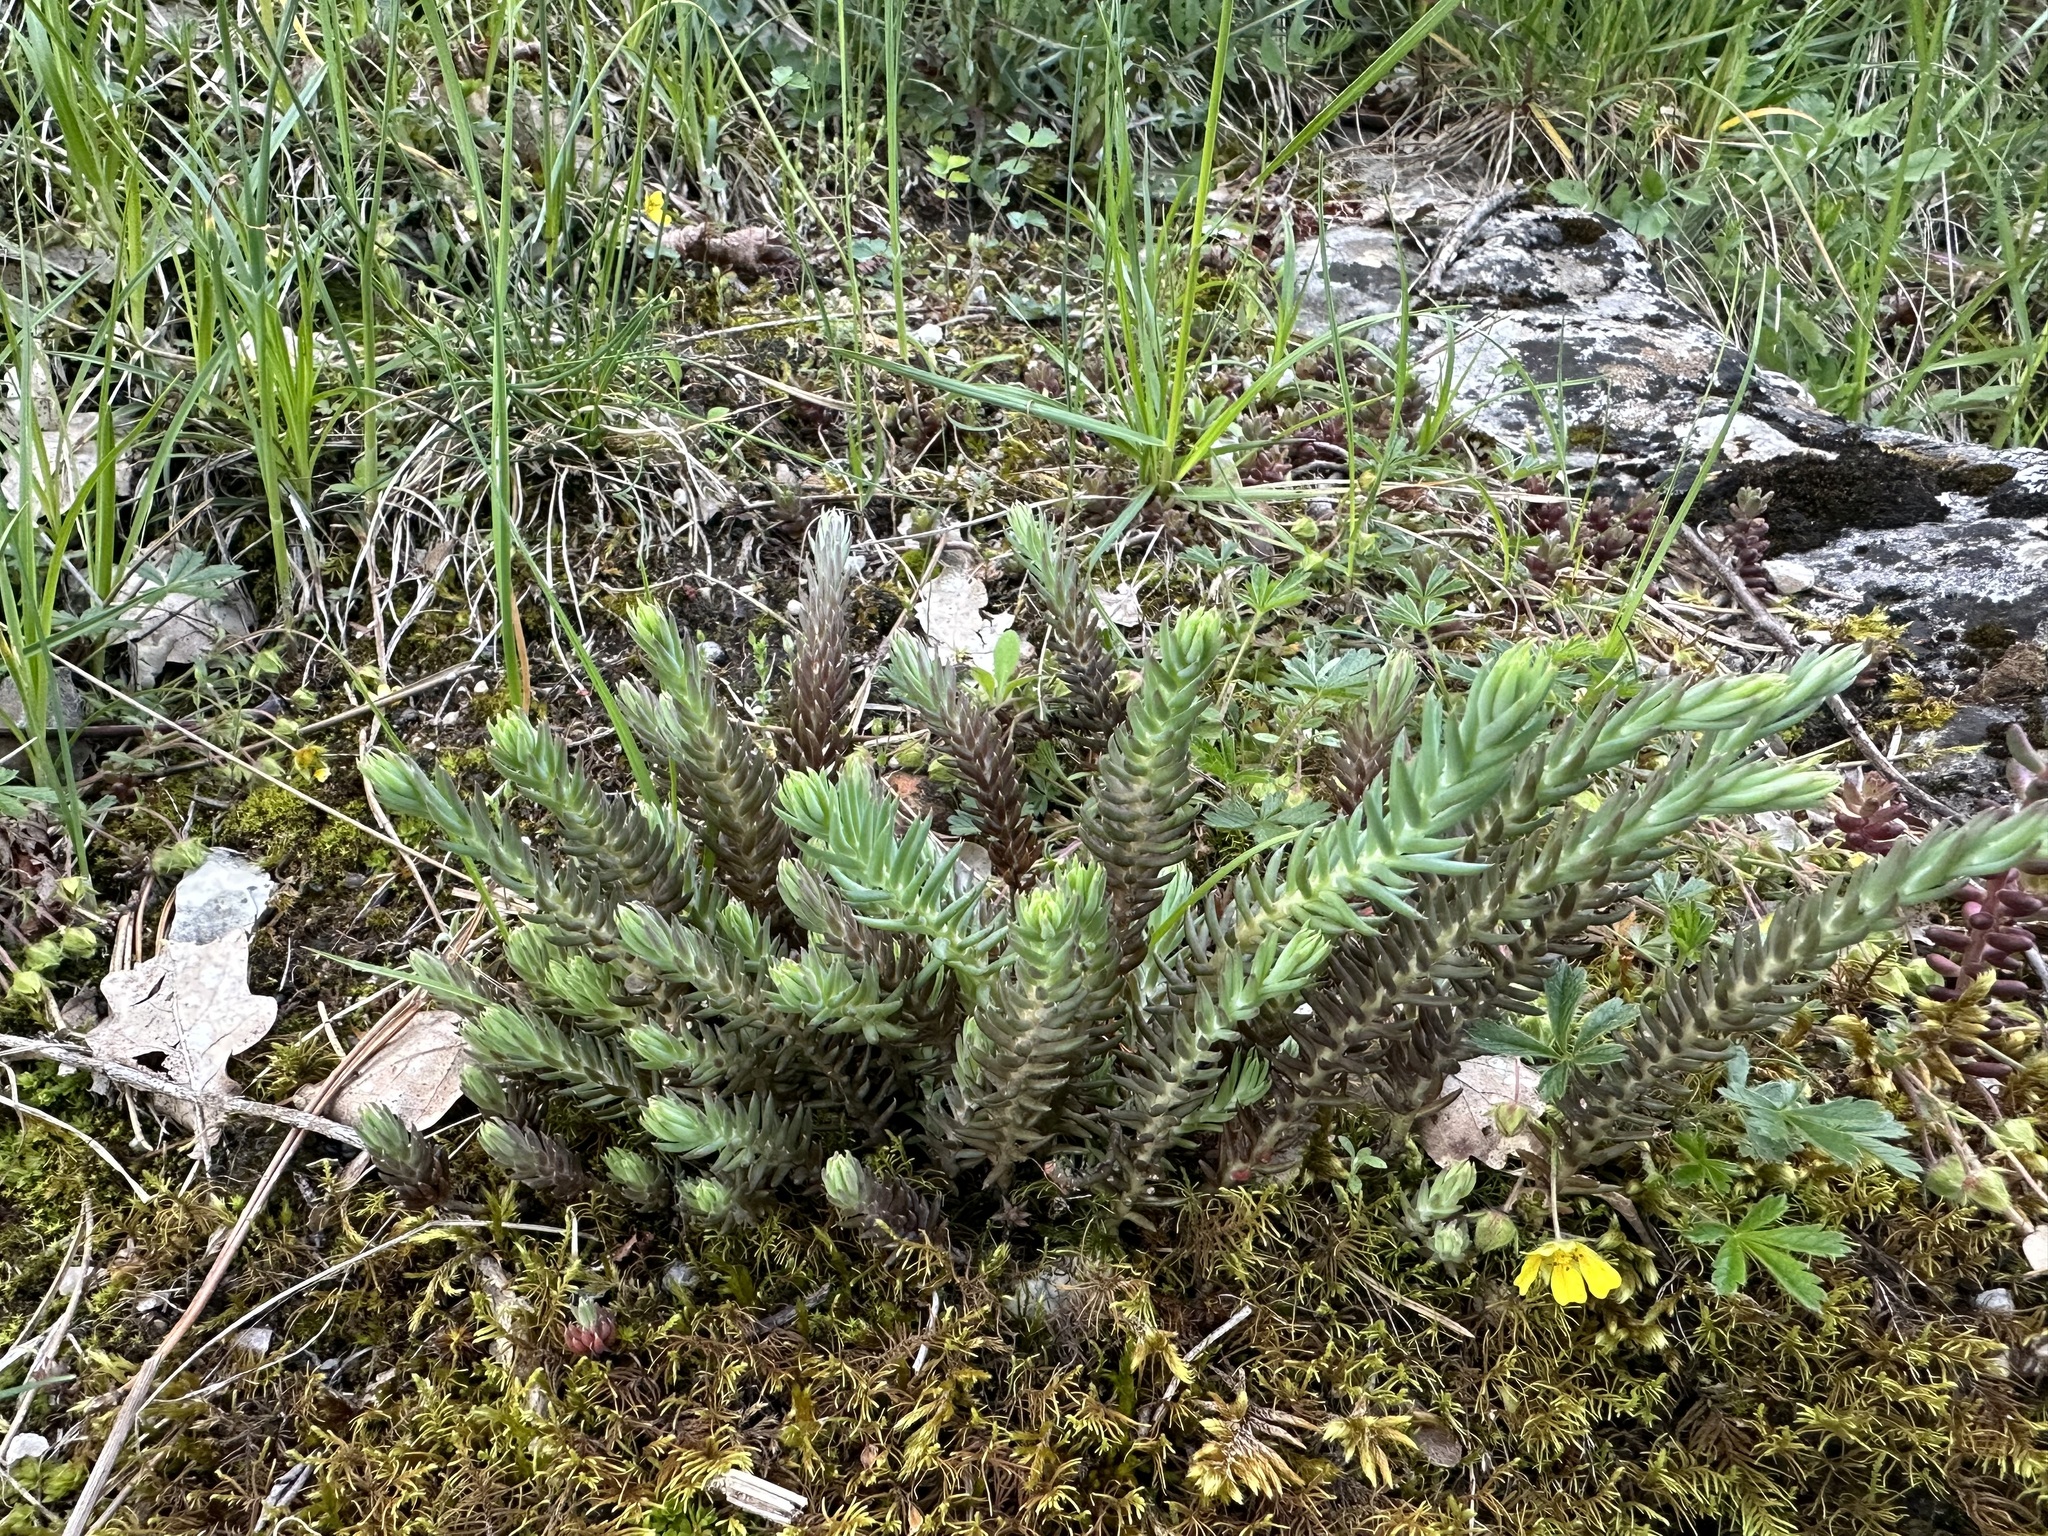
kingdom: Plantae
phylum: Tracheophyta
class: Magnoliopsida
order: Saxifragales
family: Crassulaceae
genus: Petrosedum
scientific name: Petrosedum rupestre
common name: Jenny's stonecrop
